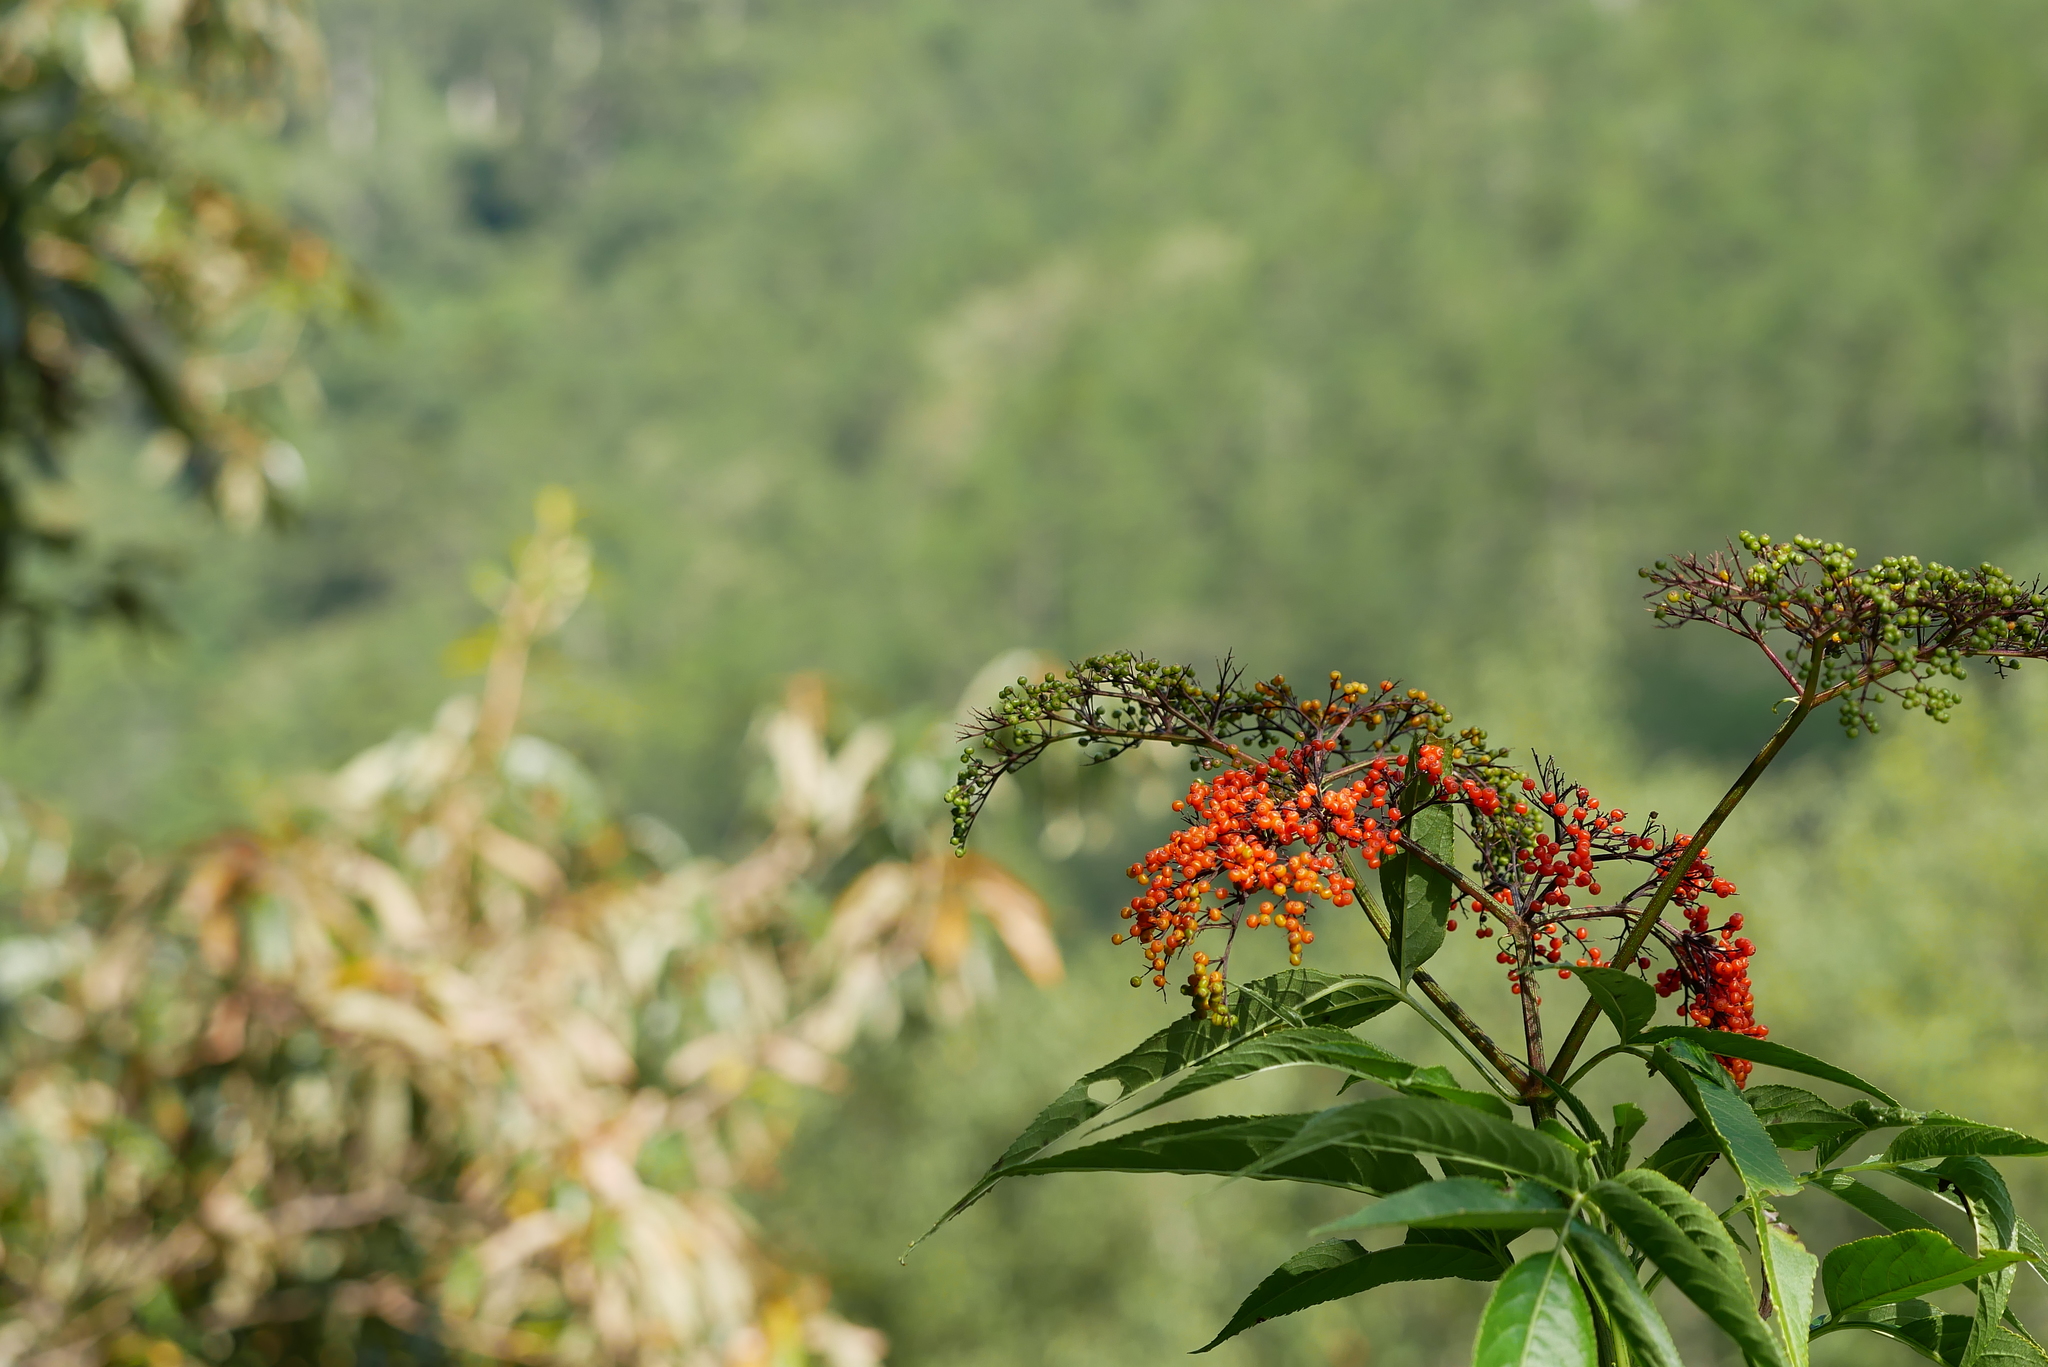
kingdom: Plantae
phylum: Tracheophyta
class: Magnoliopsida
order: Dipsacales
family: Viburnaceae
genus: Sambucus
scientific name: Sambucus javanica
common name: Chinese elder
